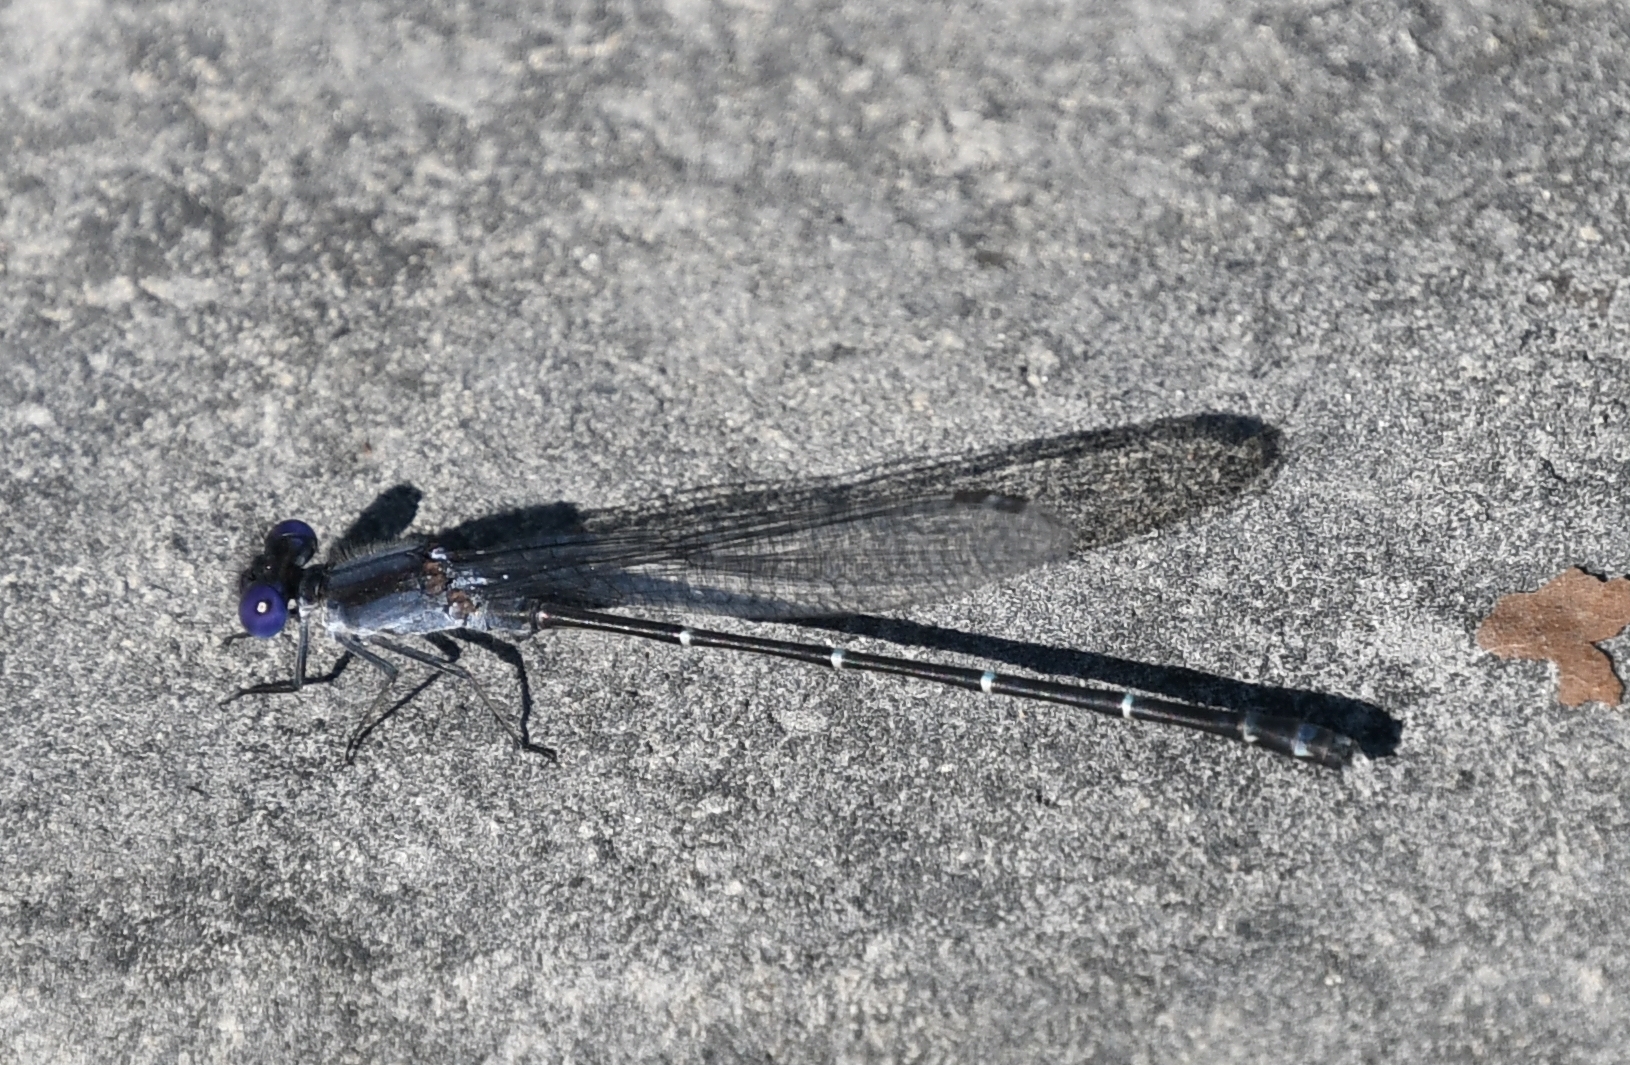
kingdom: Animalia
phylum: Arthropoda
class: Insecta
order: Odonata
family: Coenagrionidae
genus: Argia
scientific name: Argia translata
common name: Dusky dancer
